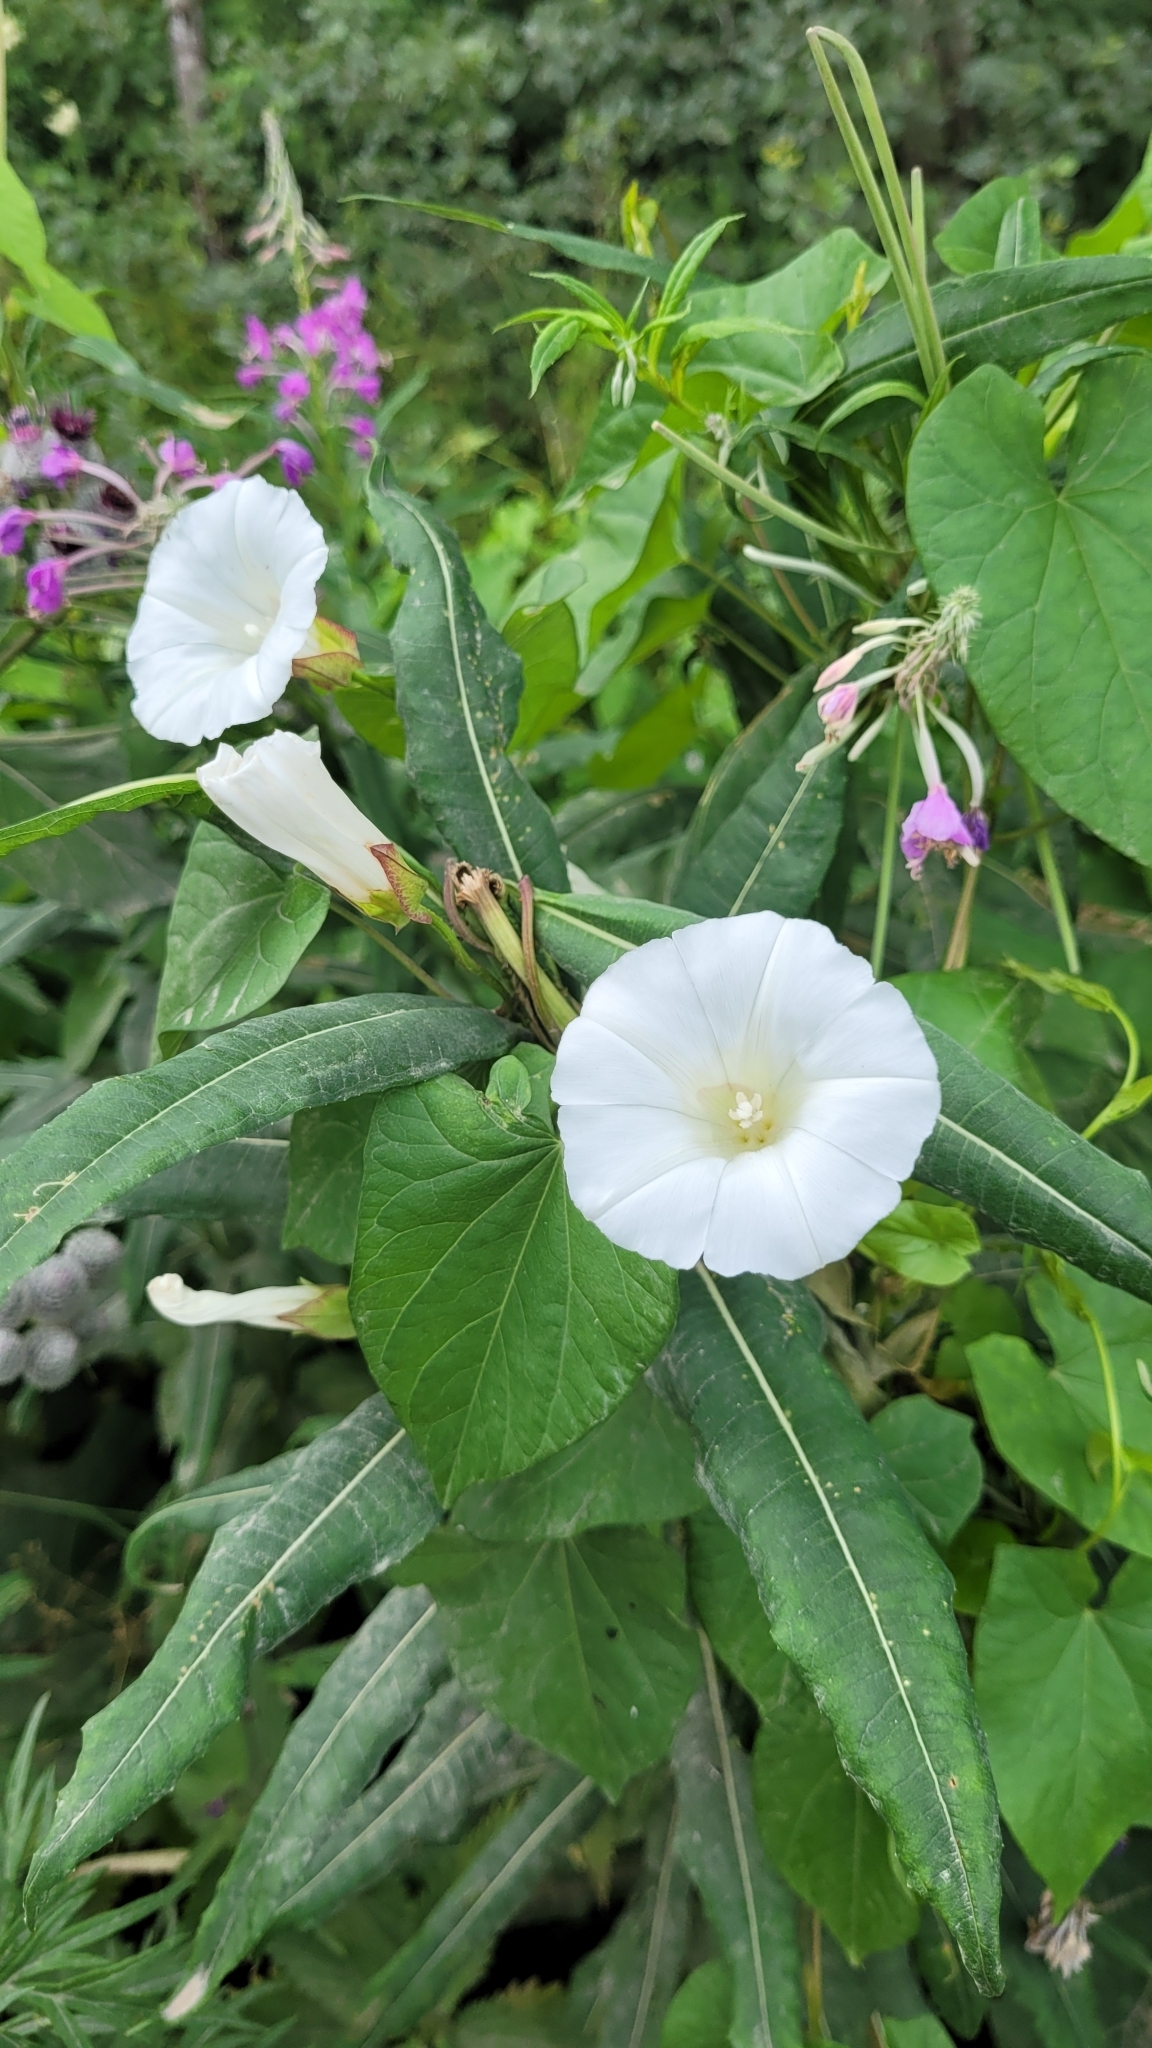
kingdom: Plantae
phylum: Tracheophyta
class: Magnoliopsida
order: Solanales
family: Convolvulaceae
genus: Calystegia
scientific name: Calystegia sepium
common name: Hedge bindweed
